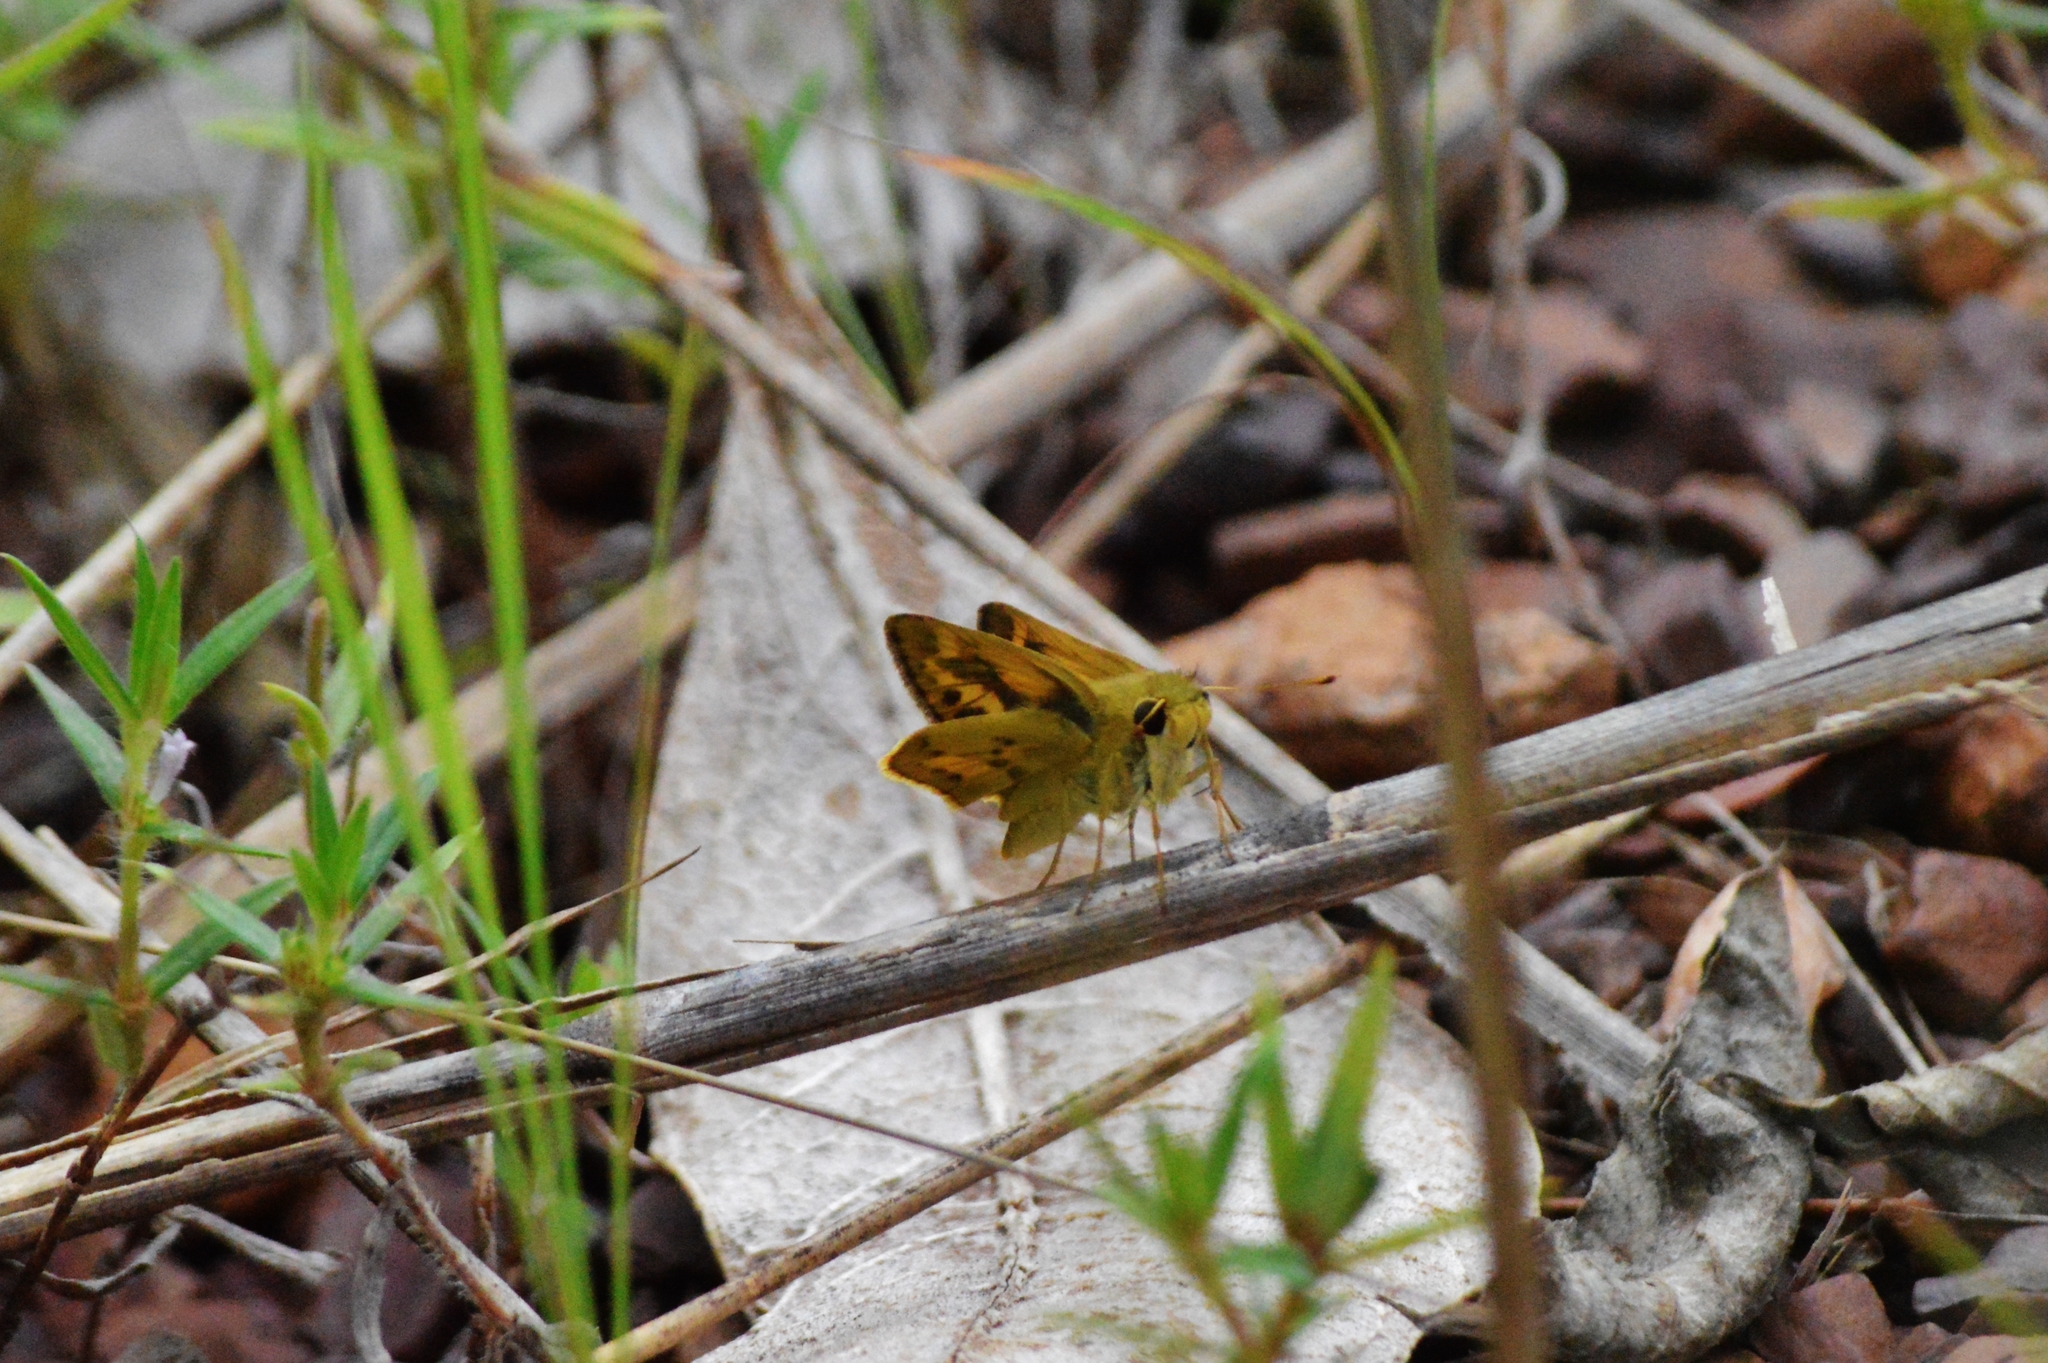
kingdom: Animalia
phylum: Arthropoda
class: Insecta
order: Lepidoptera
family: Hesperiidae
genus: Polites
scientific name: Polites vibex
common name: Whirlabout
